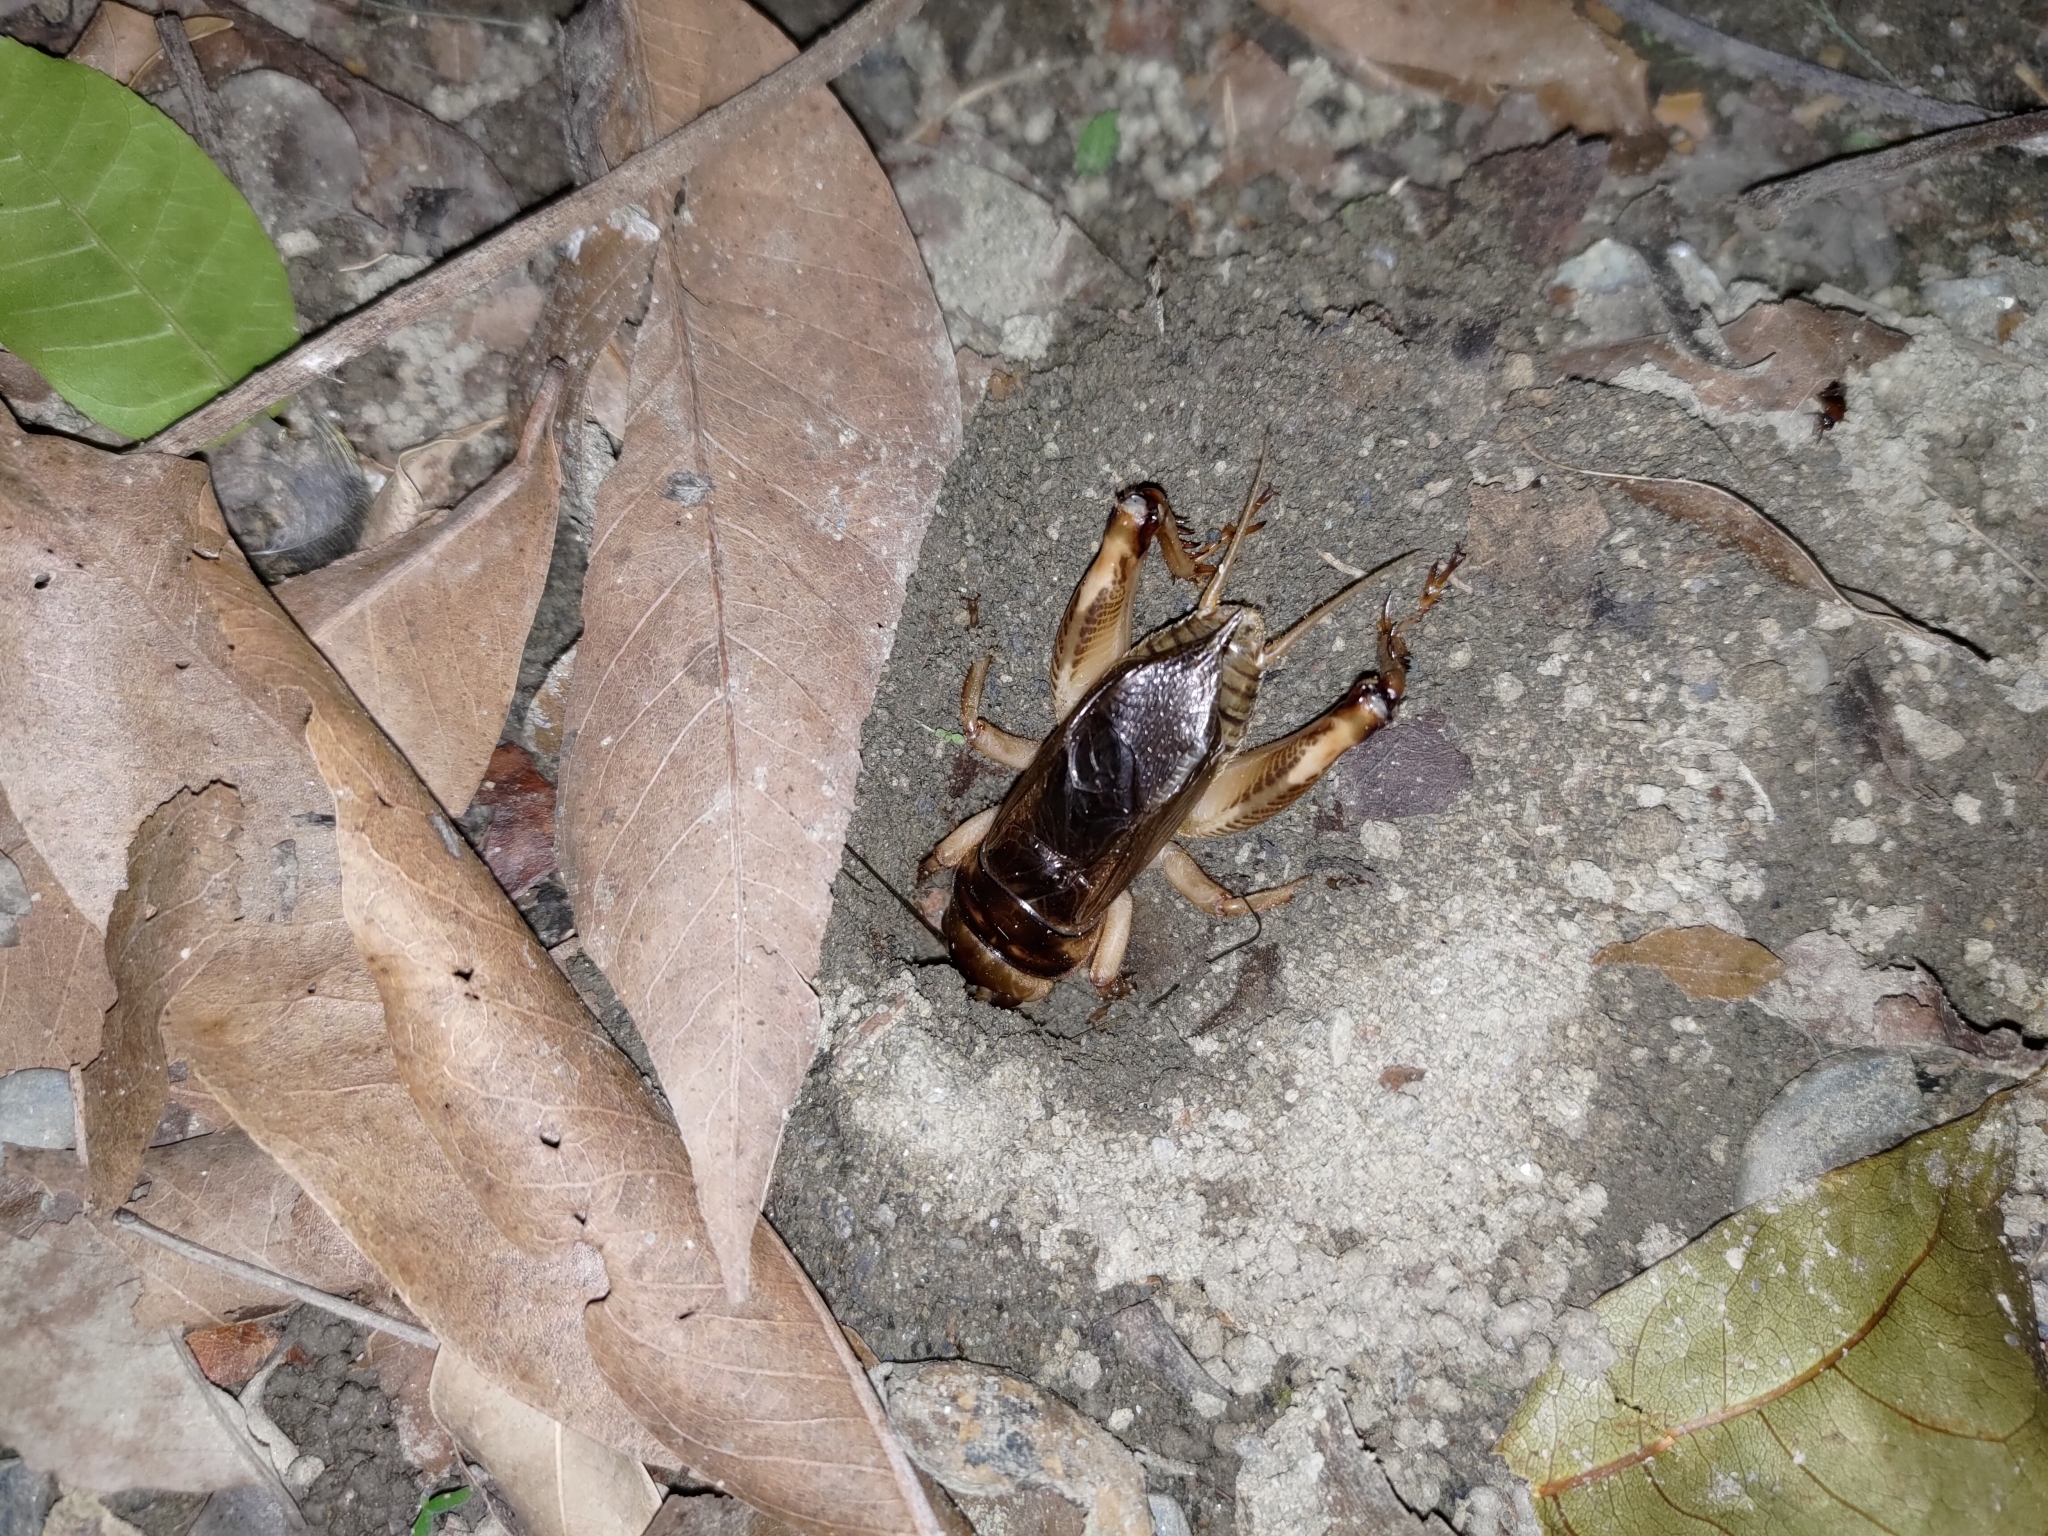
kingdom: Animalia
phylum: Arthropoda
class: Insecta
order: Orthoptera
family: Gryllidae
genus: Tarbinskiellus
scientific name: Tarbinskiellus portentosus
